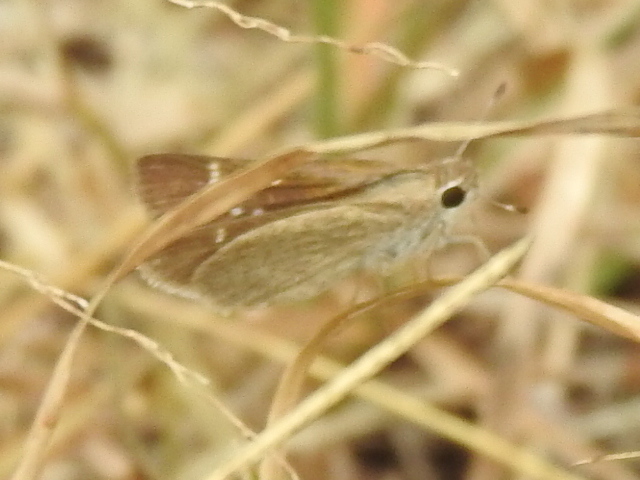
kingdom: Animalia
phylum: Arthropoda
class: Insecta
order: Lepidoptera
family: Hesperiidae
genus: Lerodea
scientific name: Lerodea eufala
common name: Eufala skipper
